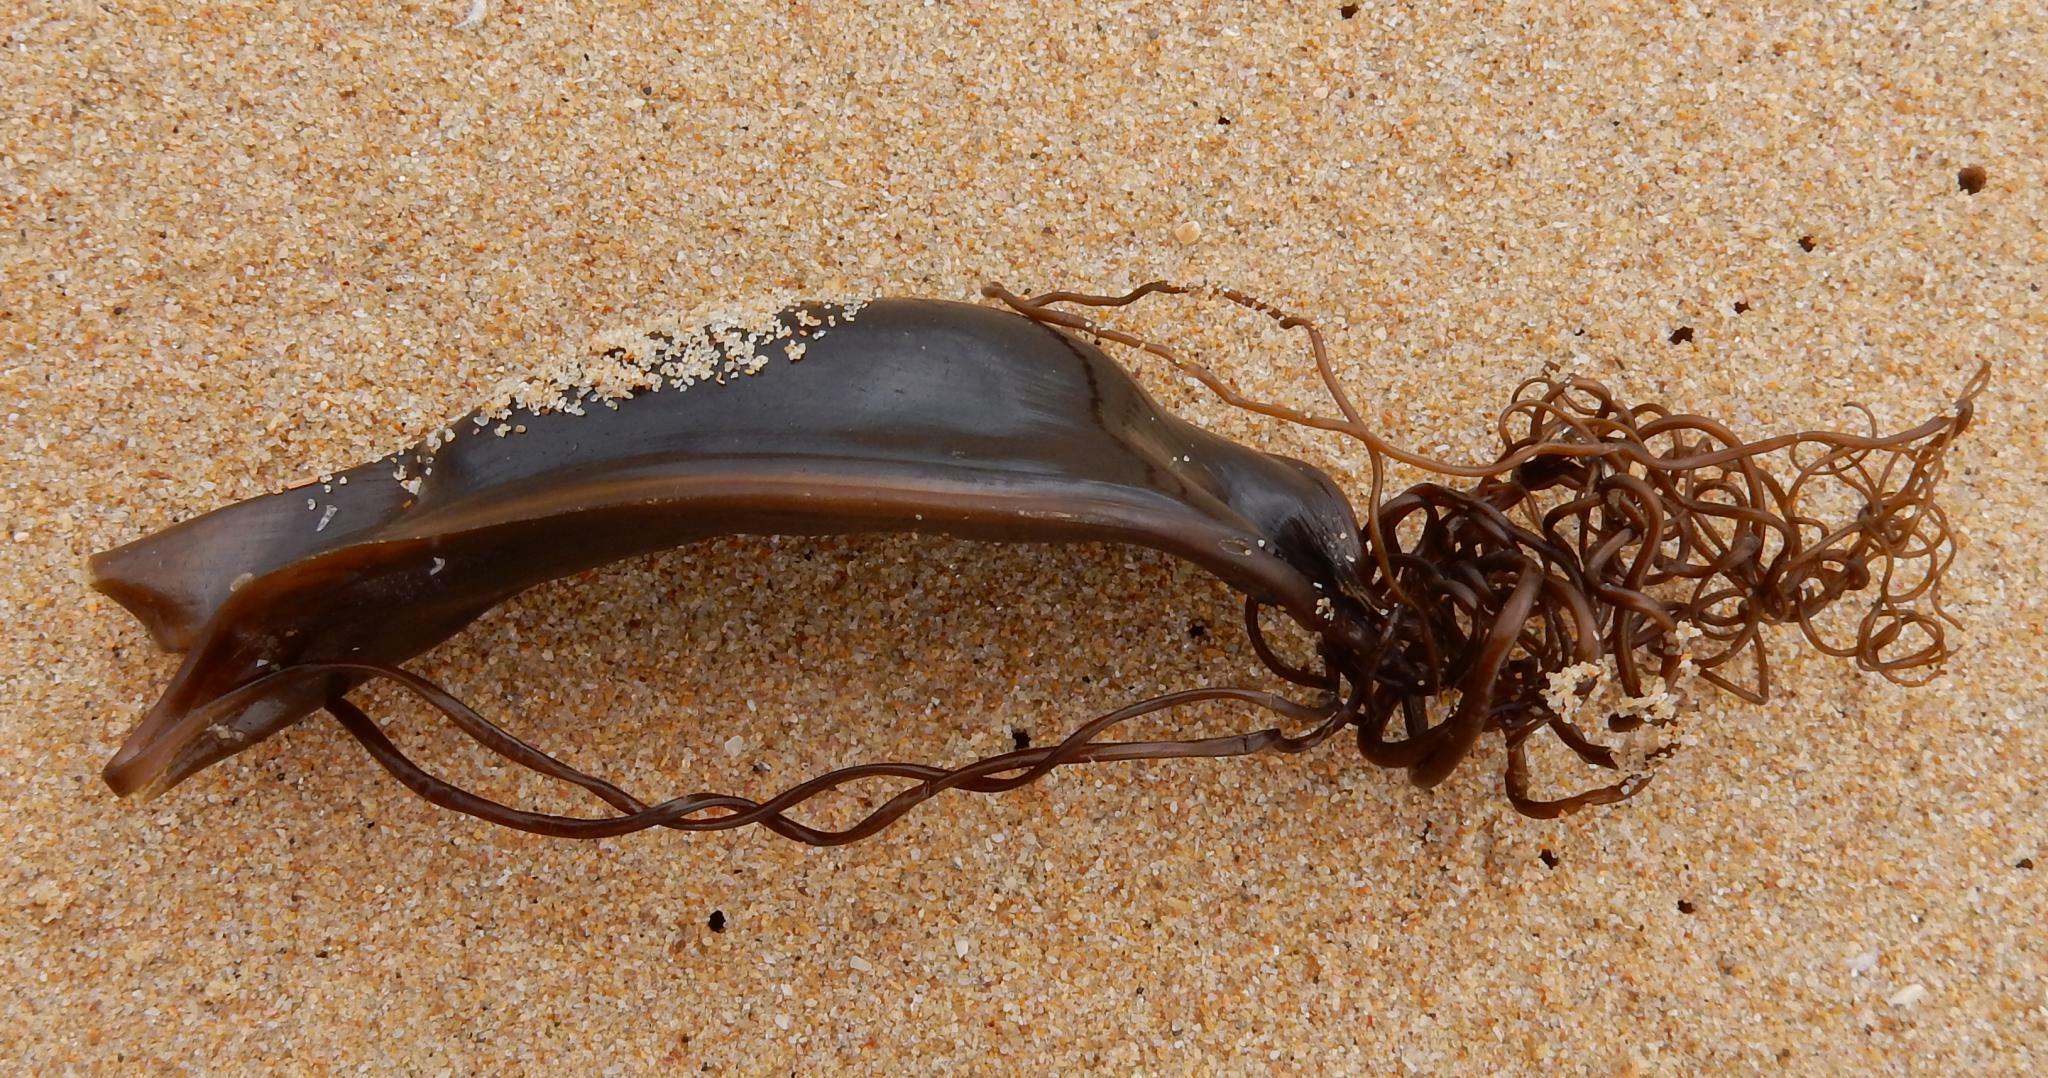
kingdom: Animalia
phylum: Chordata
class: Elasmobranchii
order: Carcharhiniformes
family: Scyliorhinidae
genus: Poroderma
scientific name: Poroderma africanum
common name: Pyjama shark
